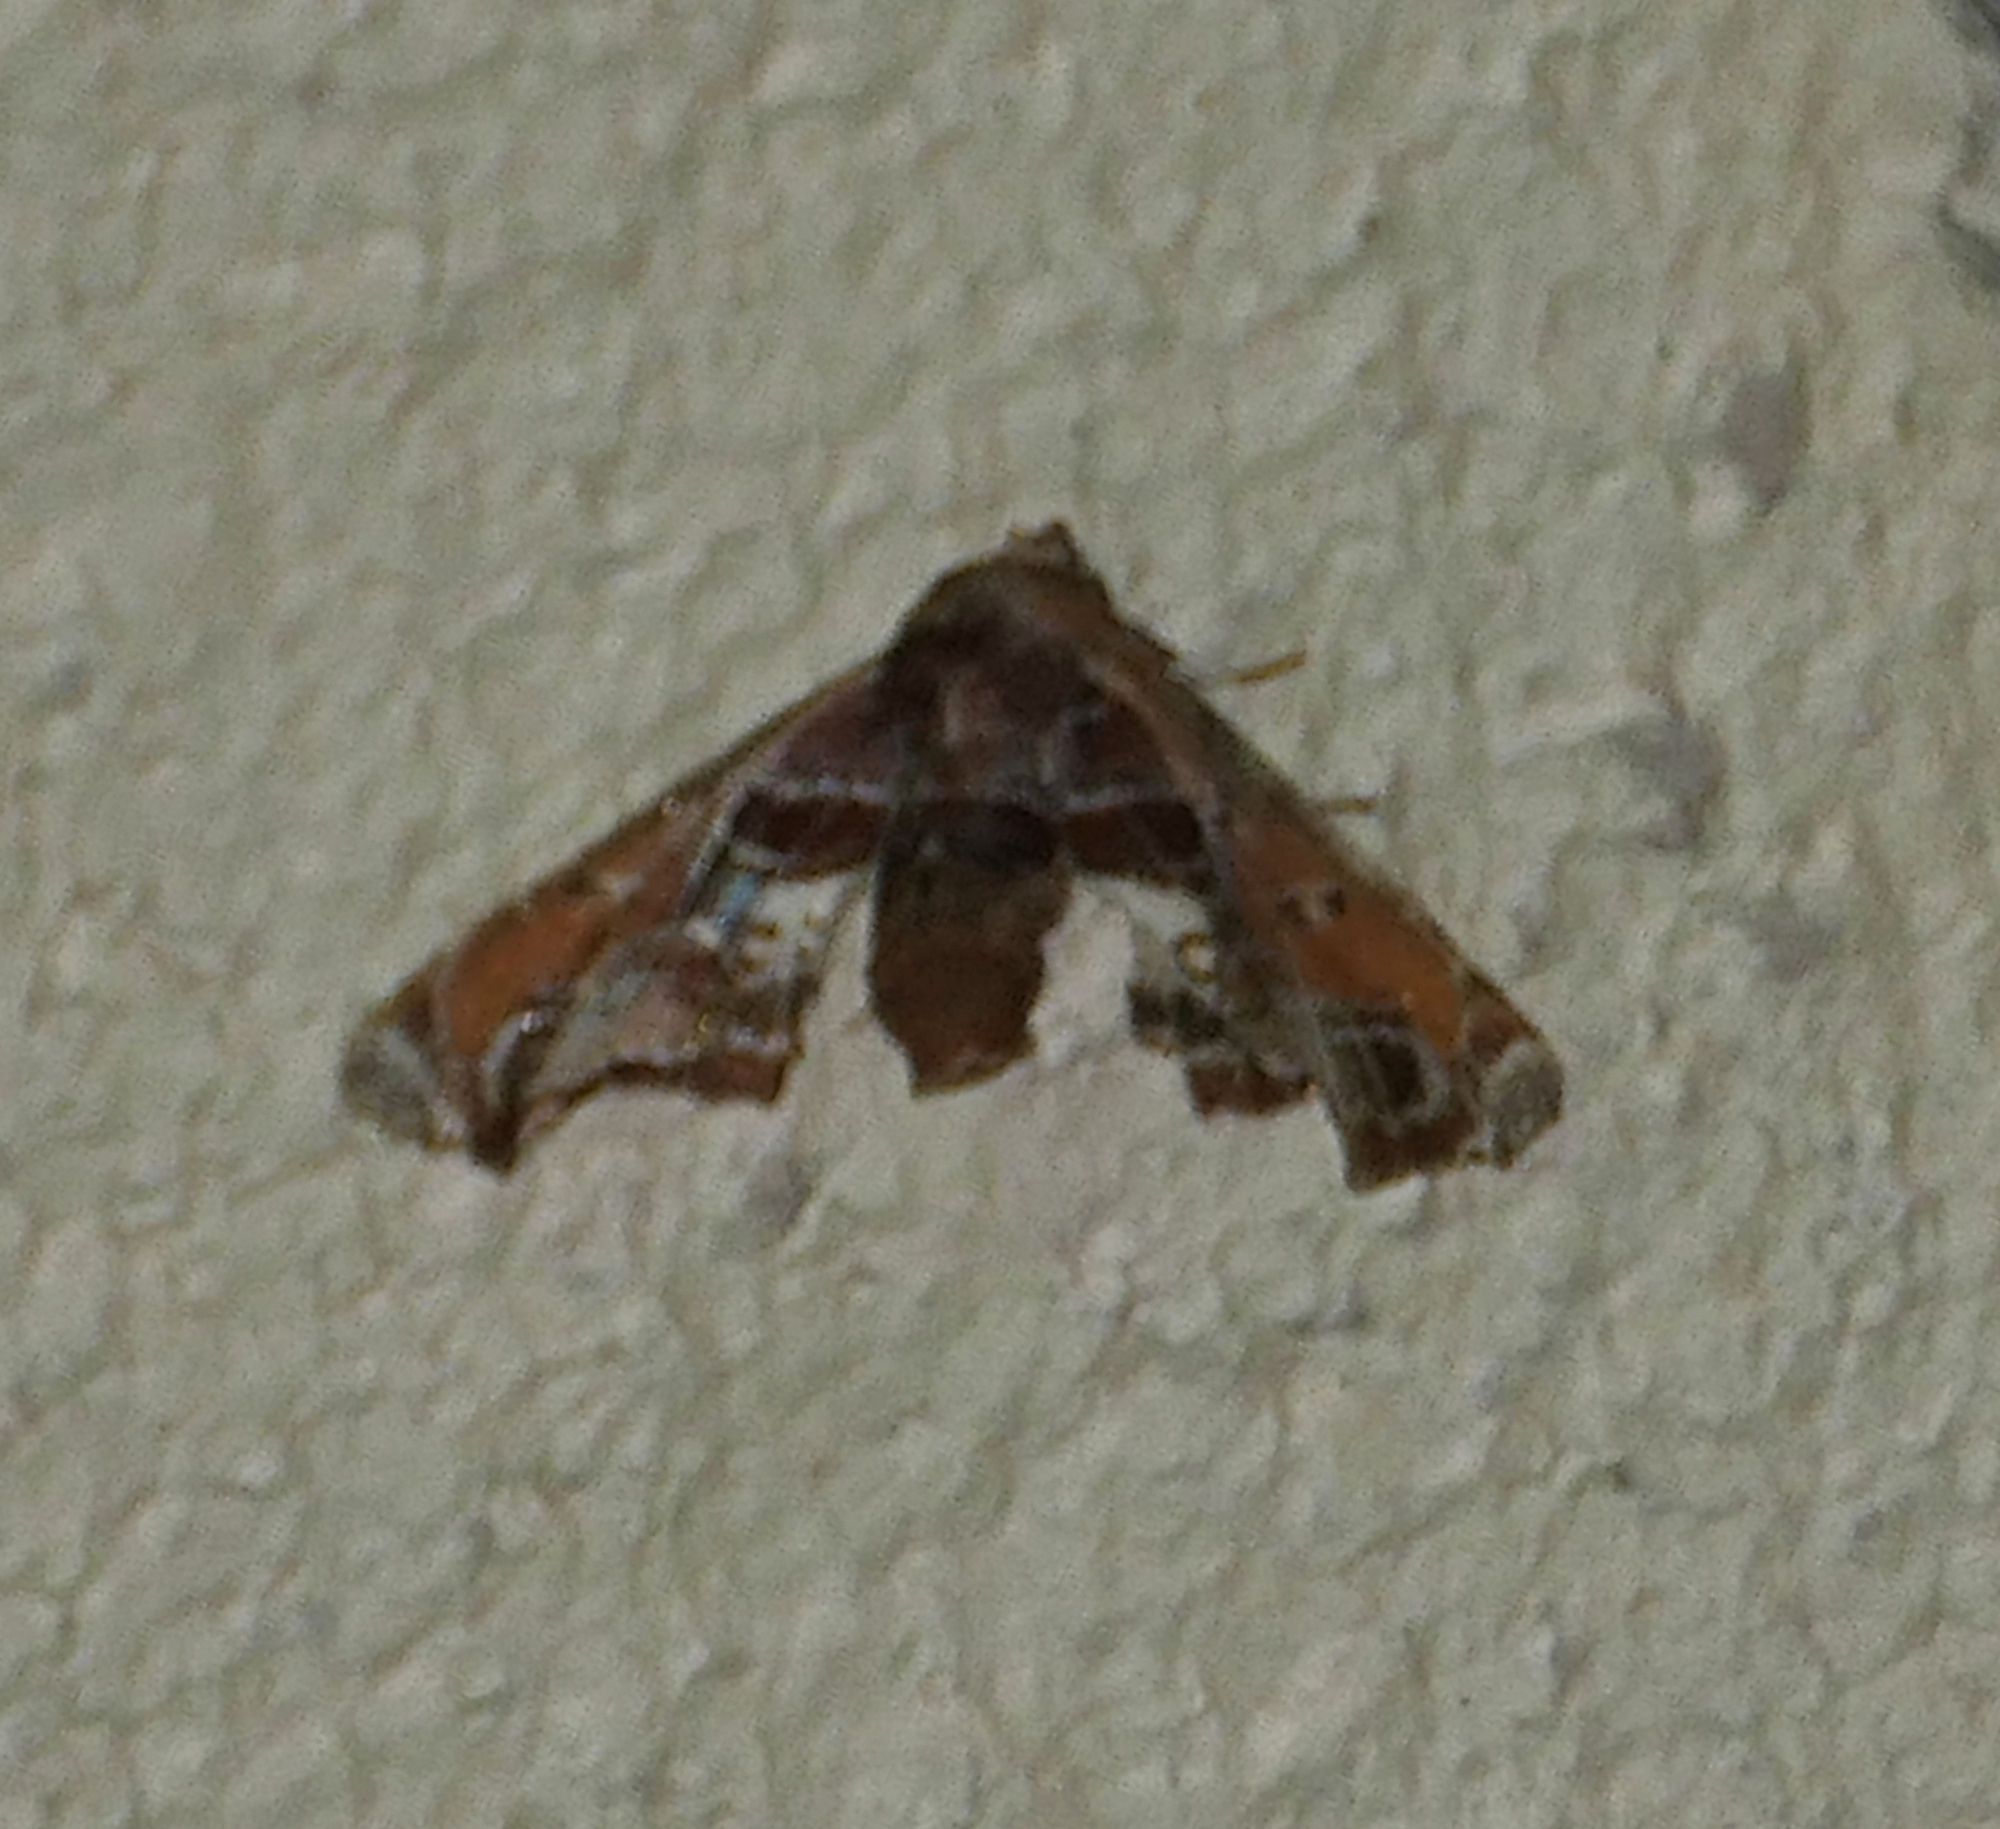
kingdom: Animalia
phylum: Arthropoda
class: Insecta
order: Lepidoptera
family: Euteliidae
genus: Eutelia
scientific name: Eutelia pulcherrimus
